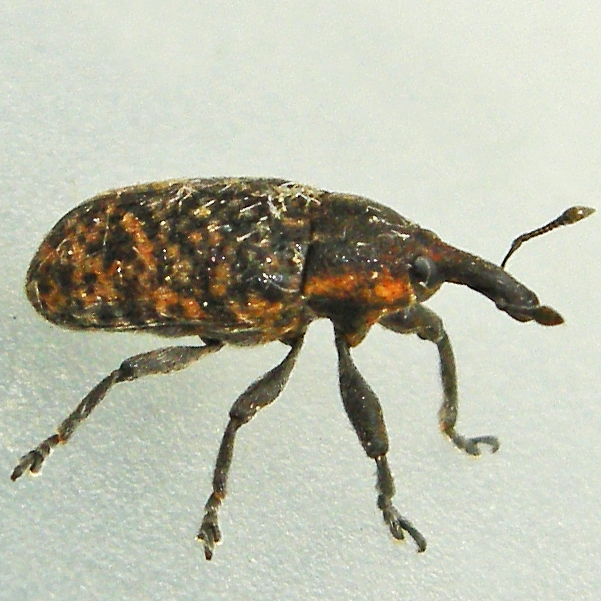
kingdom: Animalia
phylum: Arthropoda
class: Insecta
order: Coleoptera
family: Curculionidae
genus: Larinus
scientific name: Larinus carlinae
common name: Weevil
